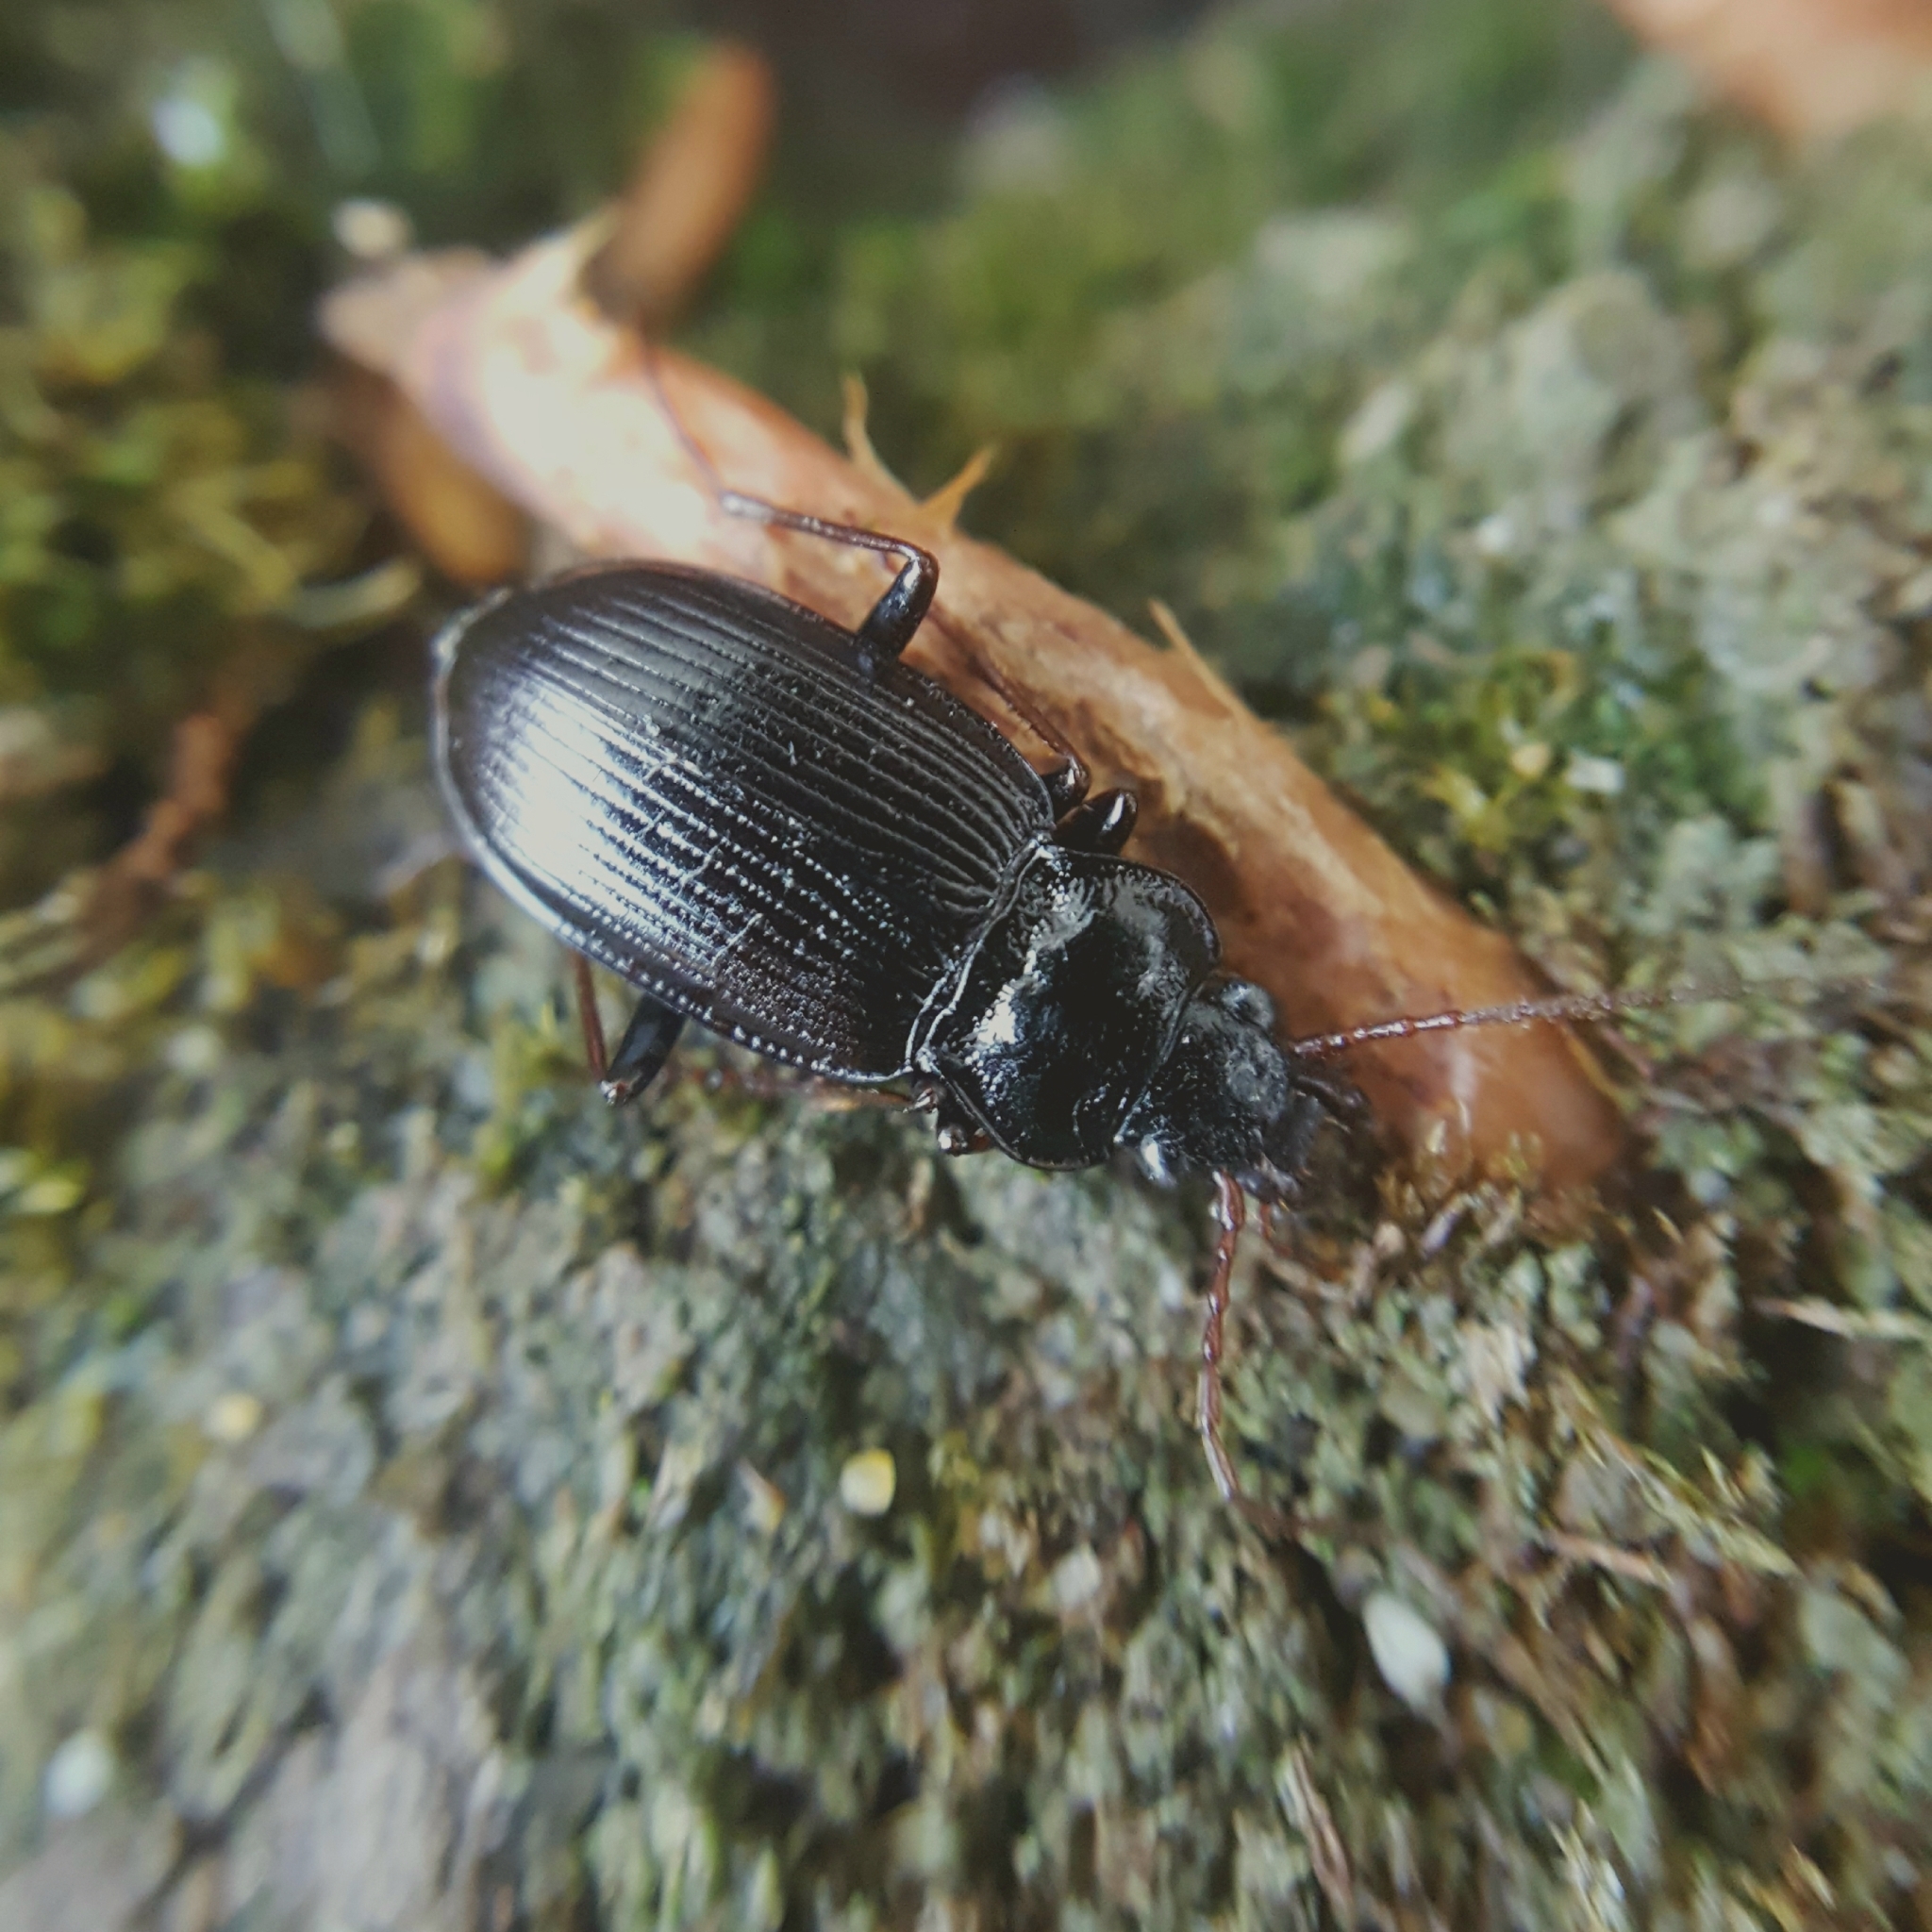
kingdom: Animalia
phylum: Arthropoda
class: Insecta
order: Coleoptera
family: Carabidae
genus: Nebria
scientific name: Nebria brevicollis
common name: Short-necked gazelle beetle
